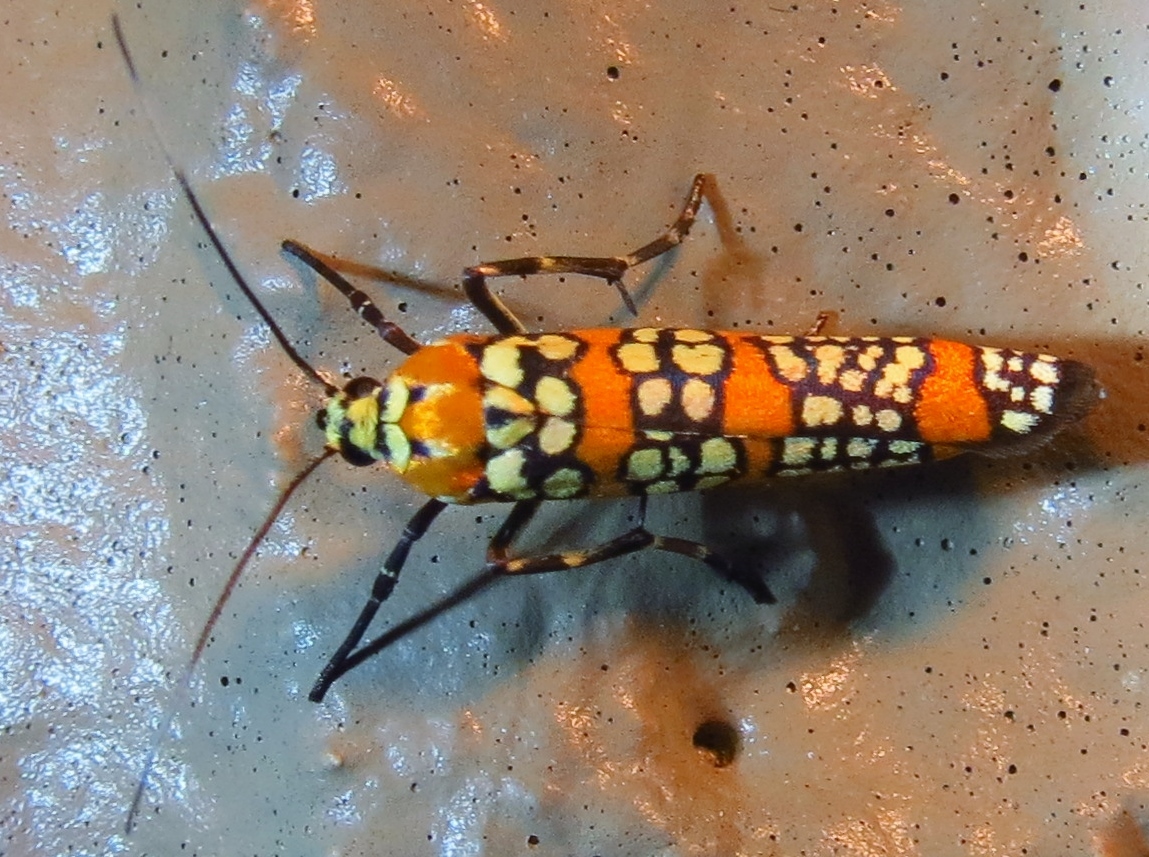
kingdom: Animalia
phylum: Arthropoda
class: Insecta
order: Lepidoptera
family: Attevidae
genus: Atteva
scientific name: Atteva punctella
